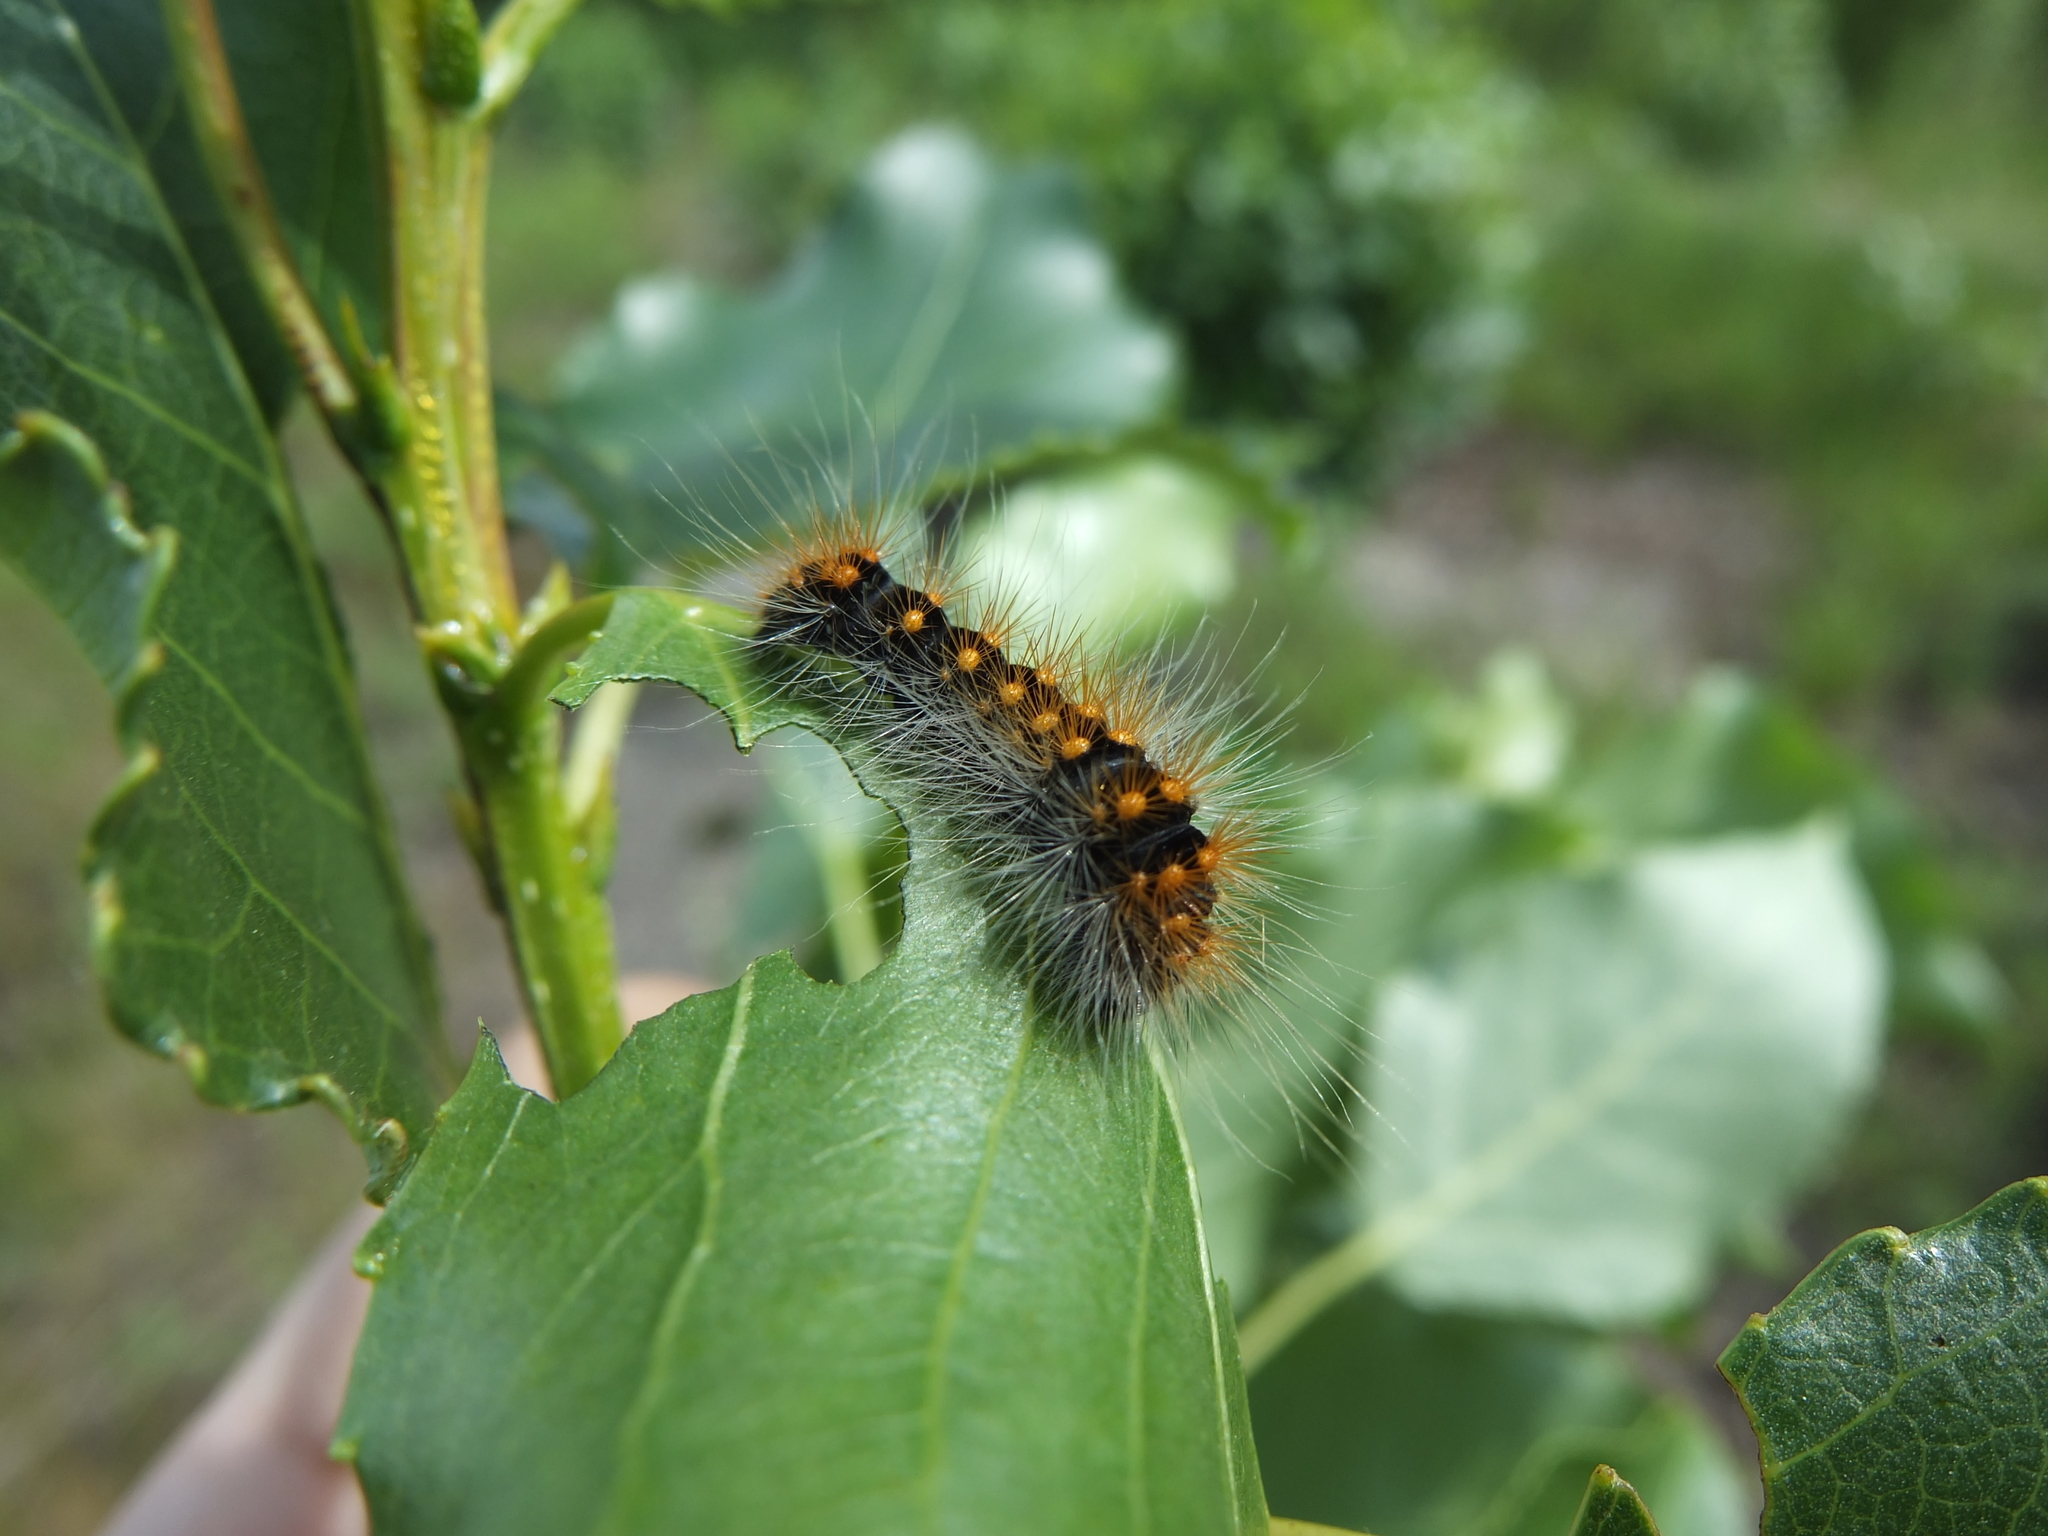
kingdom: Animalia
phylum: Arthropoda
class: Insecta
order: Lepidoptera
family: Noctuidae
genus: Acronicta
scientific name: Acronicta auricoma
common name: Scarce dagger
